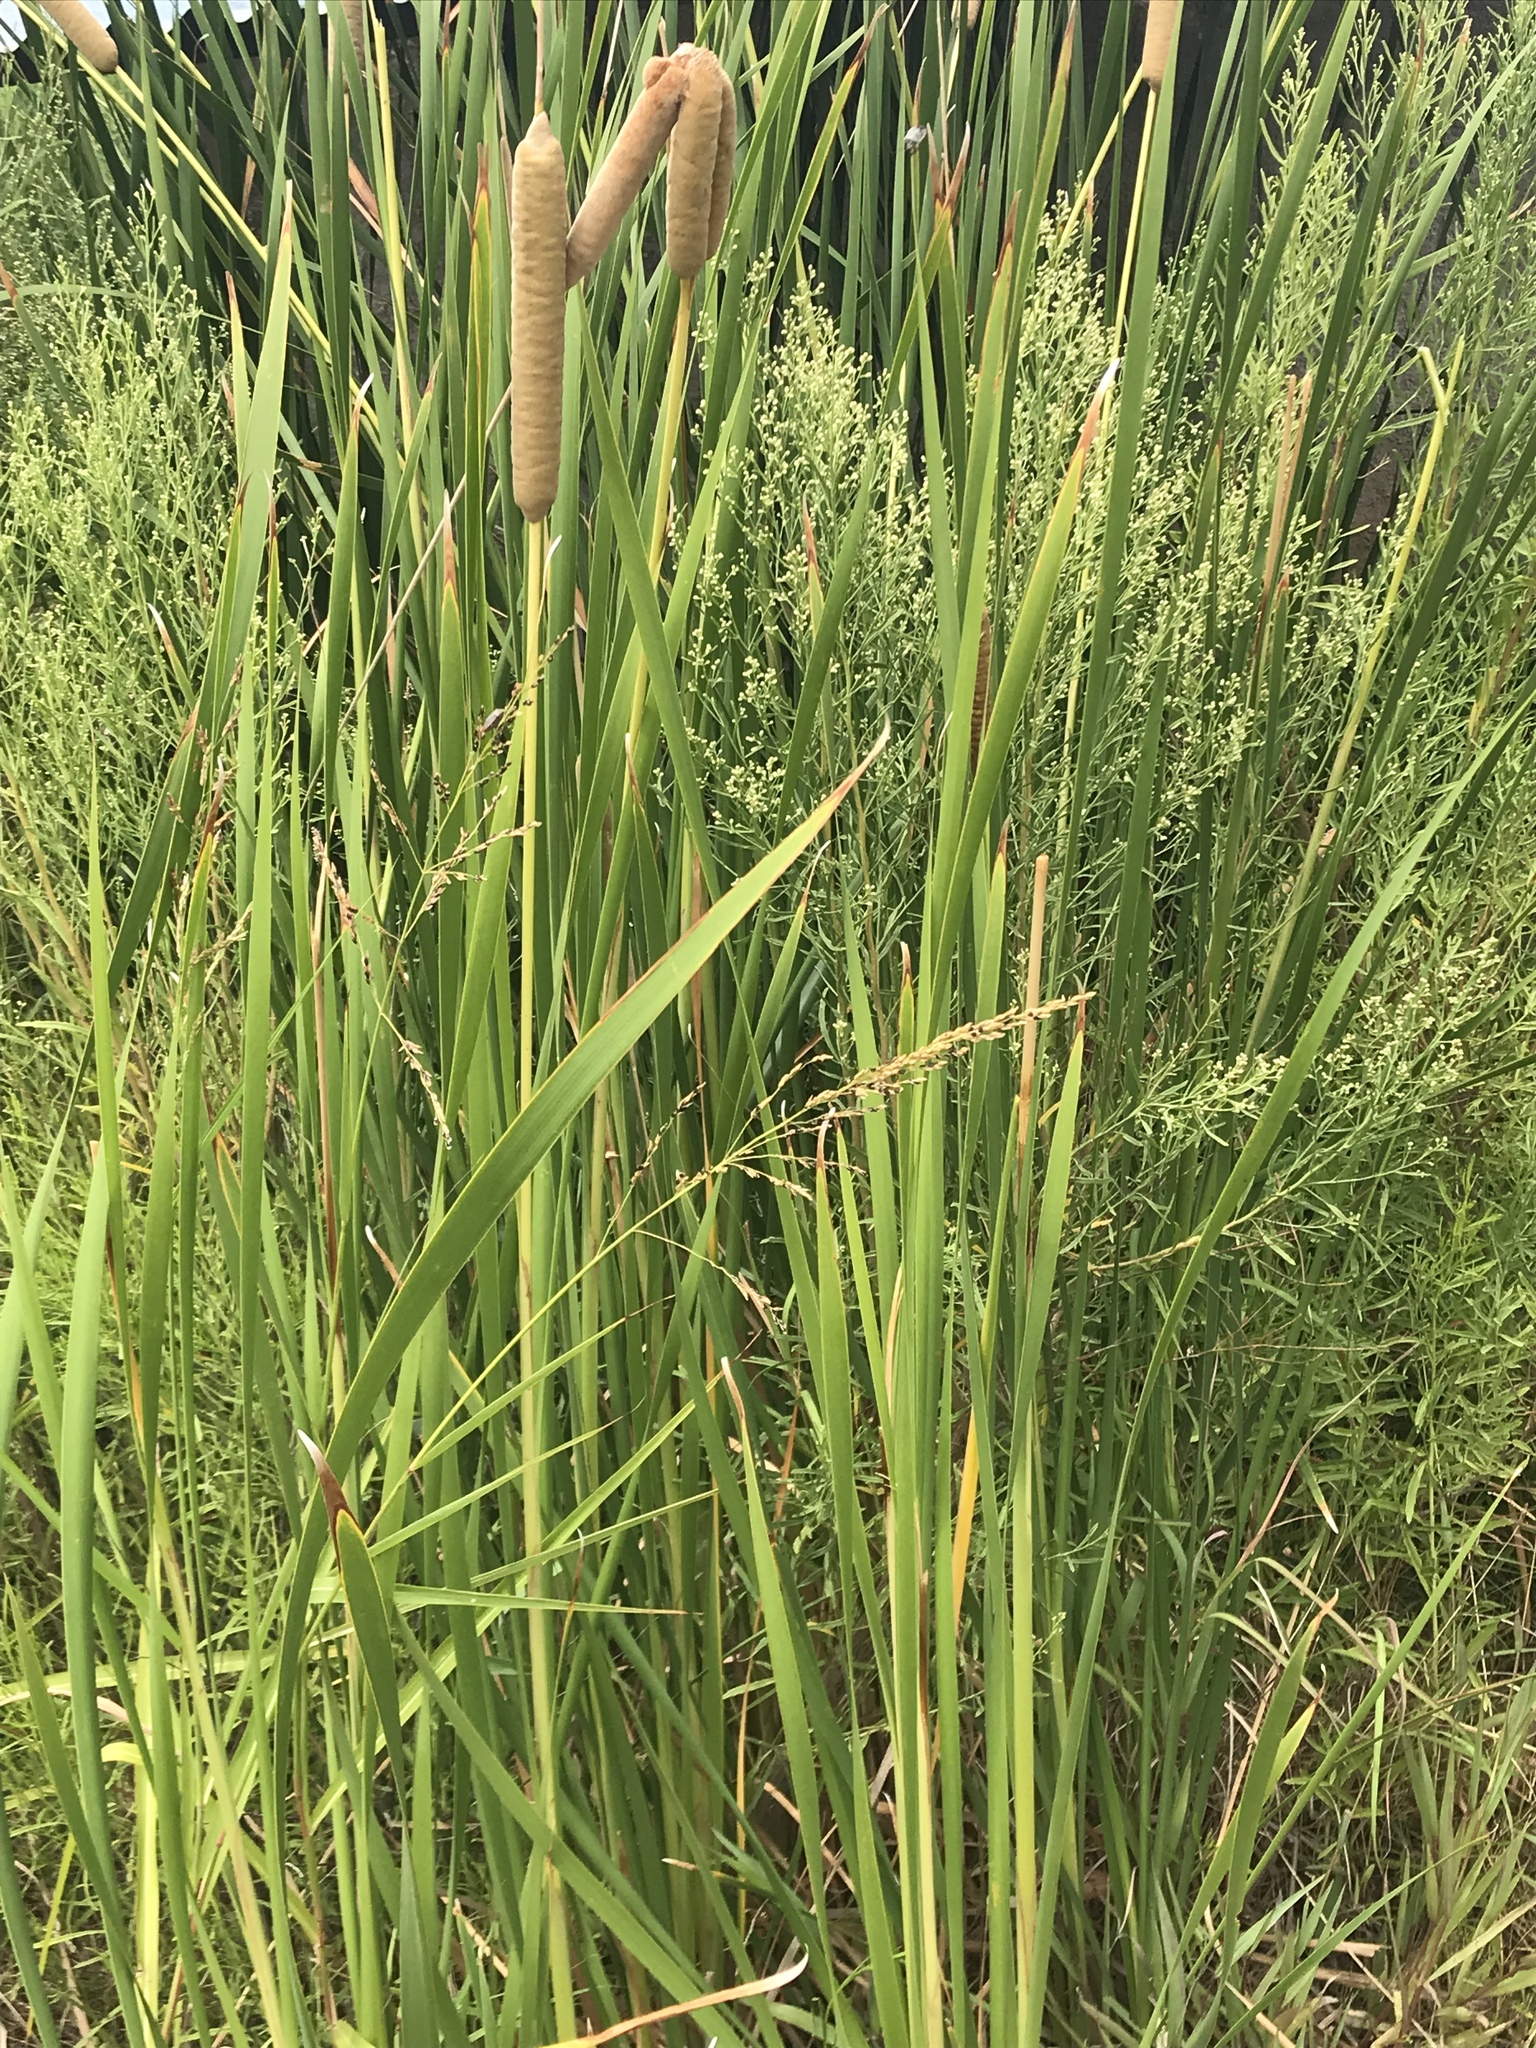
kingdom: Plantae
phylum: Tracheophyta
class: Liliopsida
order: Poales
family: Typhaceae
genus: Typha
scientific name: Typha domingensis
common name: Southern cattail
